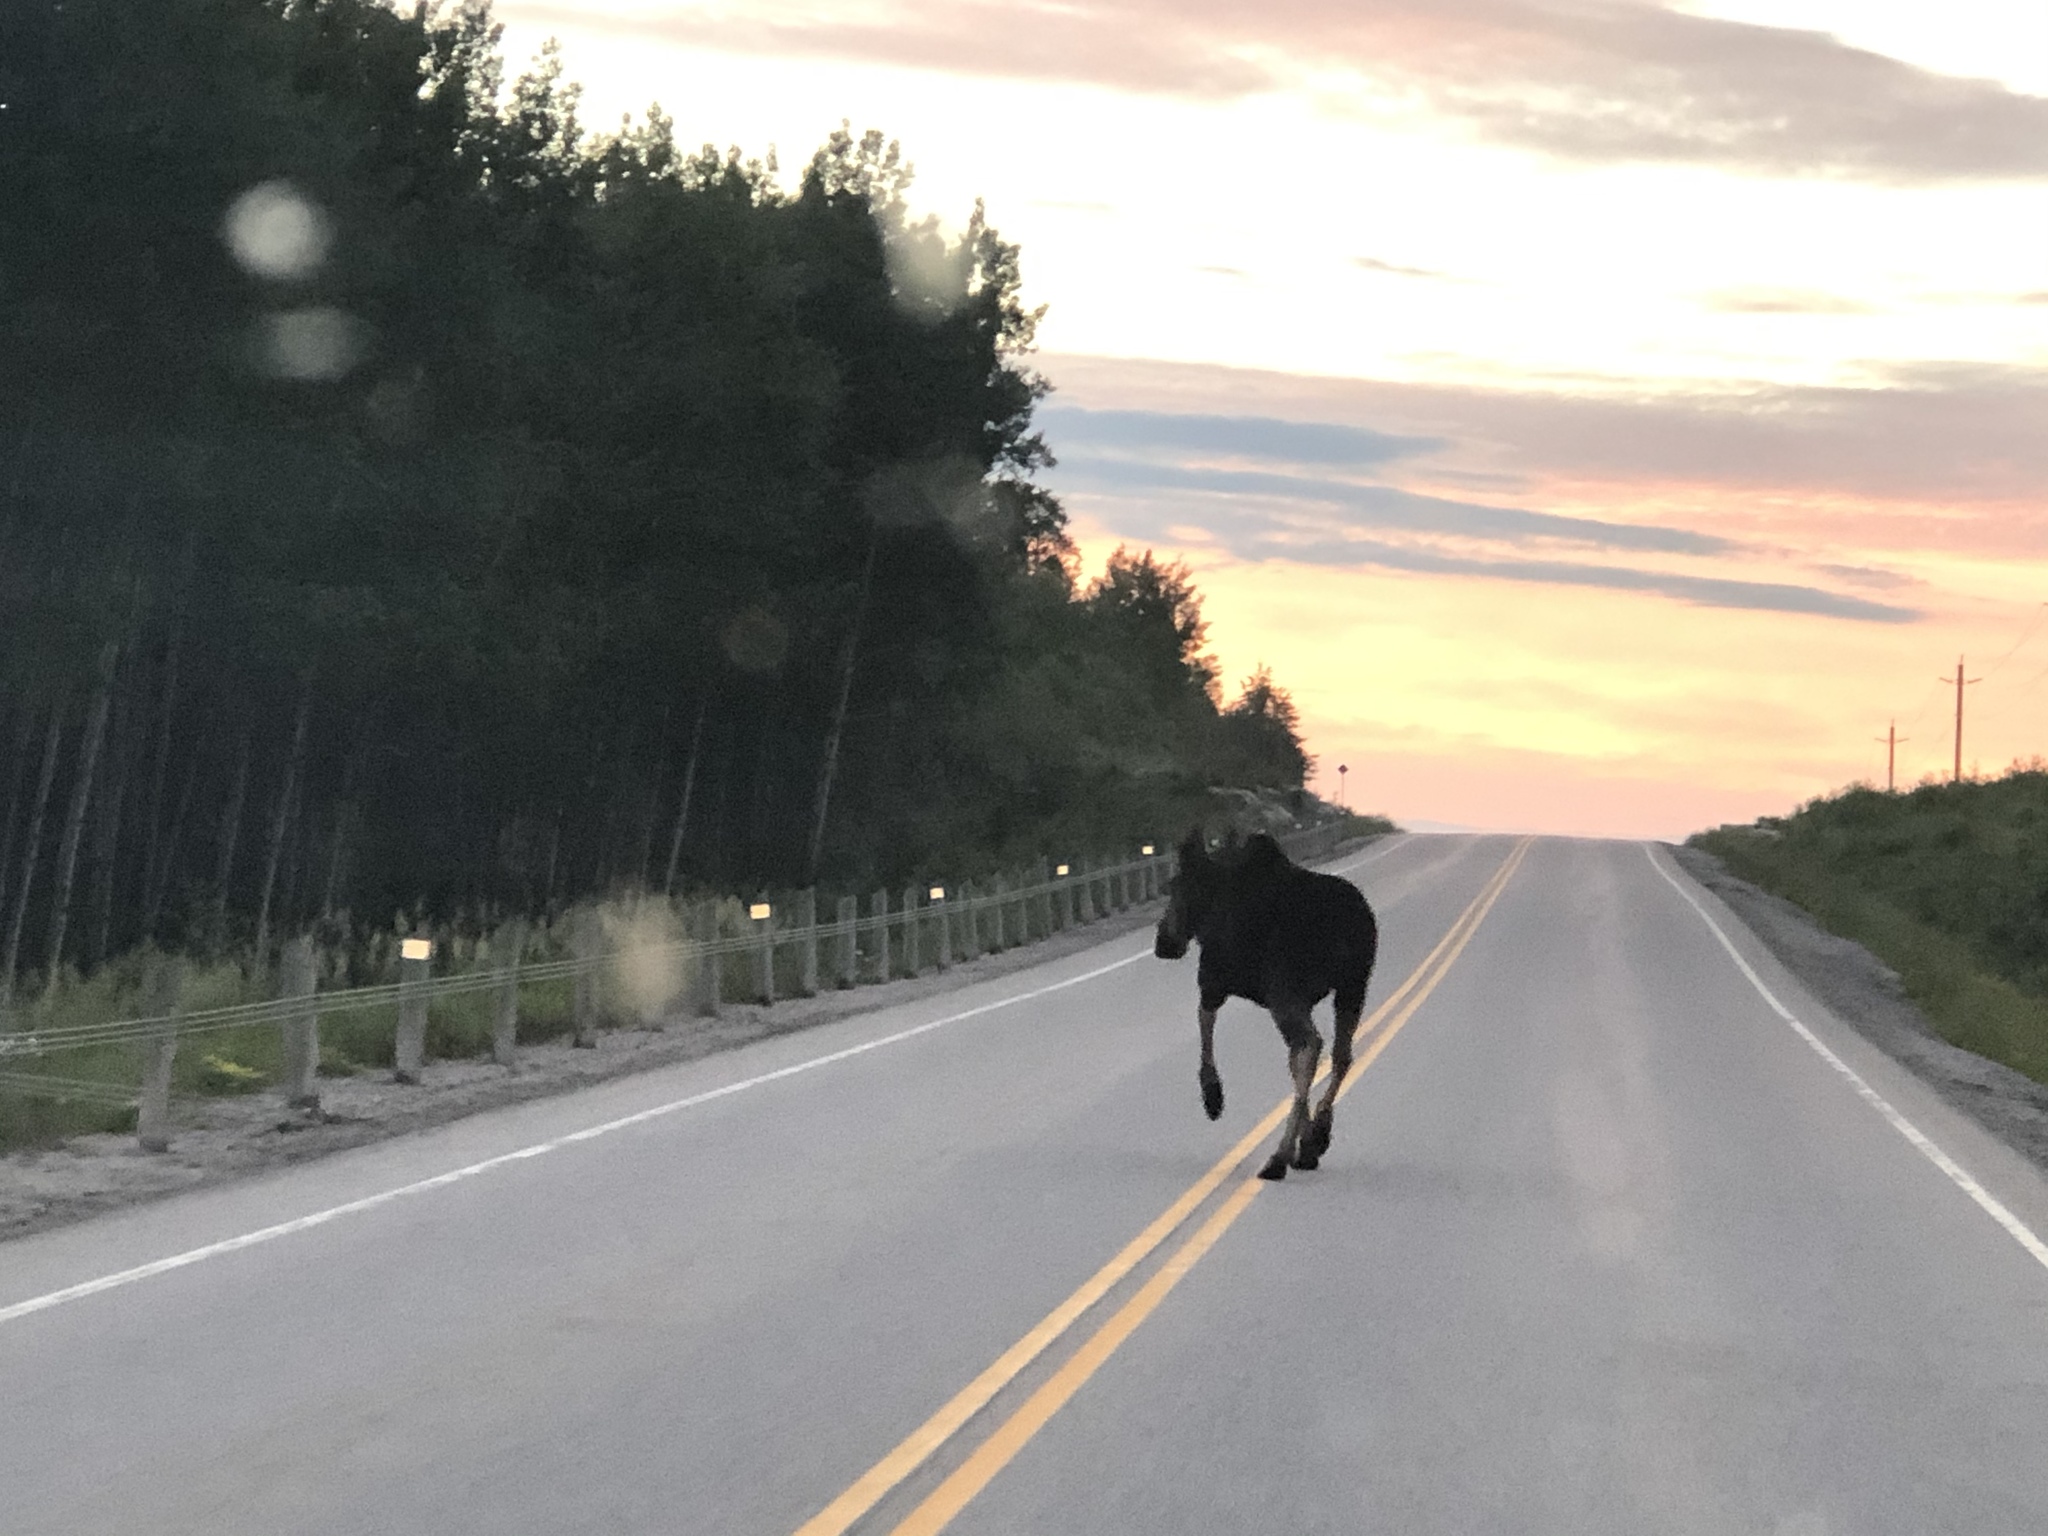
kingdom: Animalia
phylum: Chordata
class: Mammalia
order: Artiodactyla
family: Cervidae
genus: Alces
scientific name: Alces alces
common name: Moose
